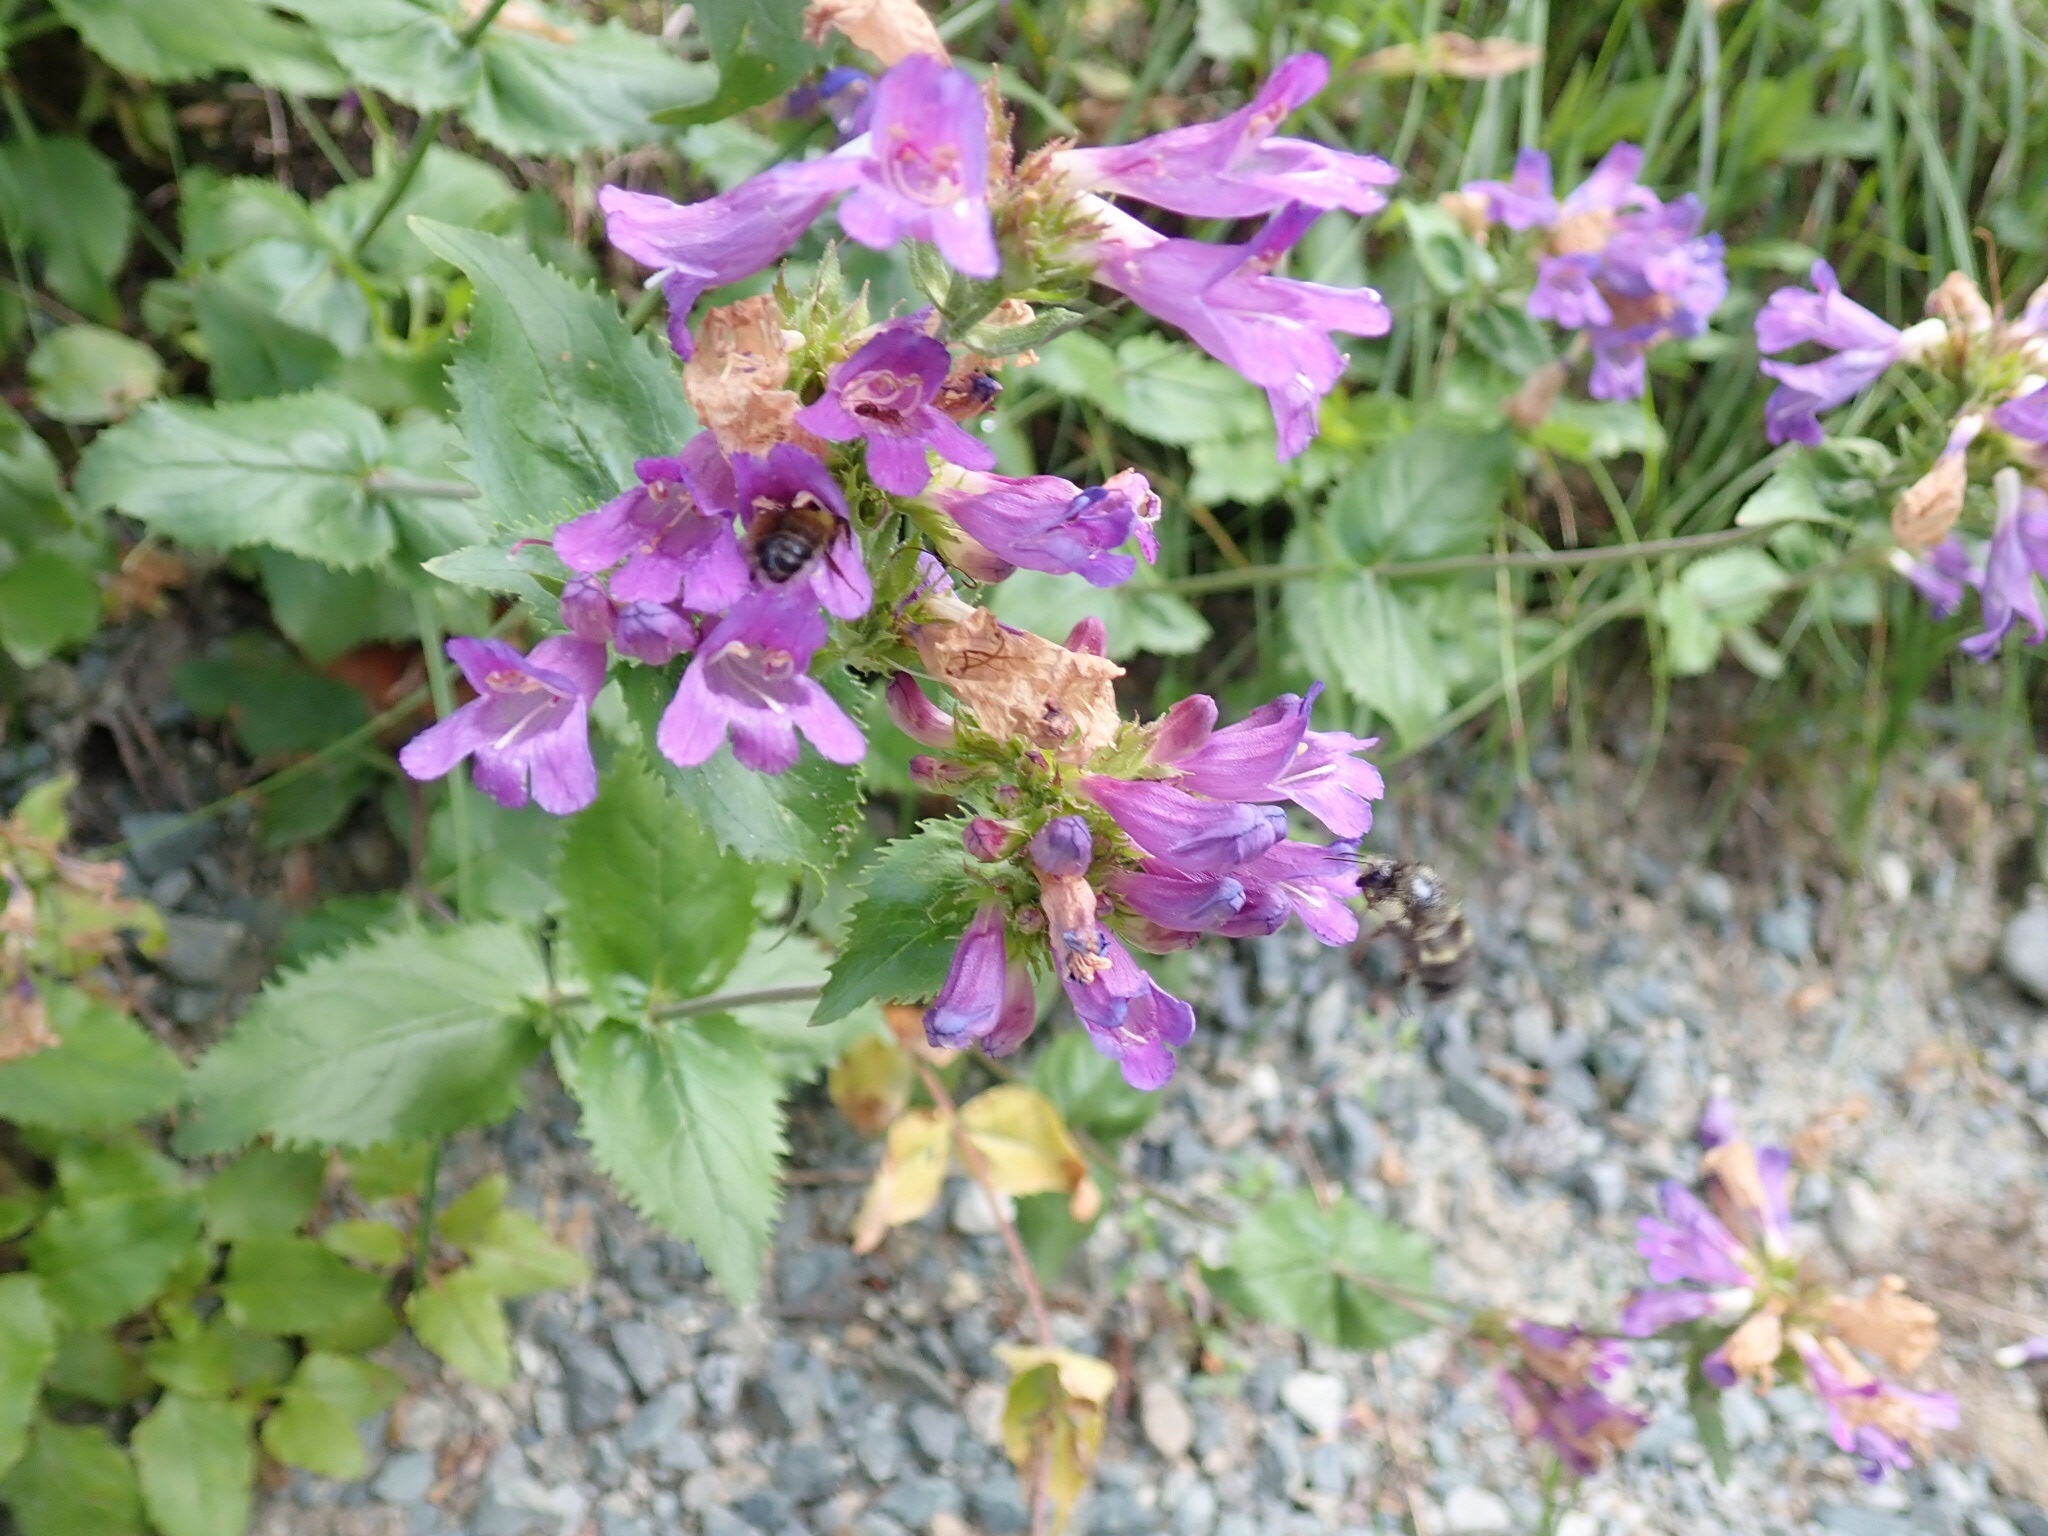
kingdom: Plantae
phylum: Tracheophyta
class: Magnoliopsida
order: Lamiales
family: Plantaginaceae
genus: Penstemon
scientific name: Penstemon serrulatus
